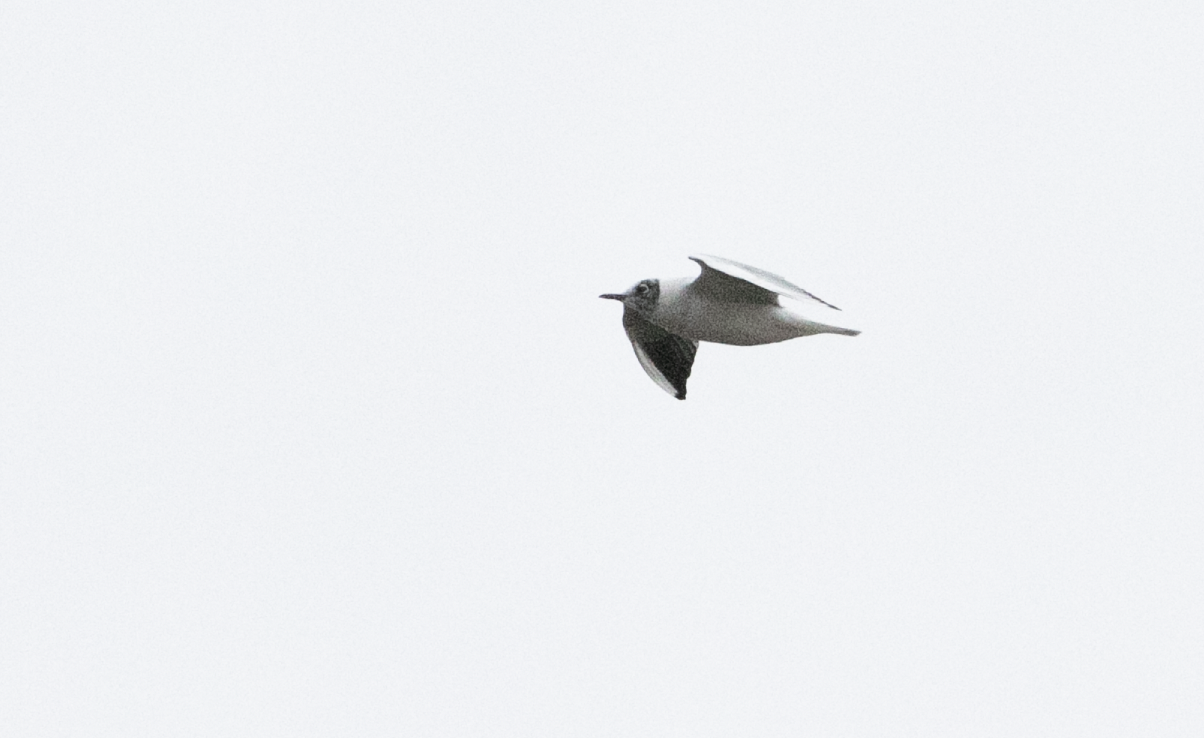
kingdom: Animalia
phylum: Chordata
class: Aves
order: Charadriiformes
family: Laridae
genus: Chroicocephalus
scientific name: Chroicocephalus ridibundus
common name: Black-headed gull
